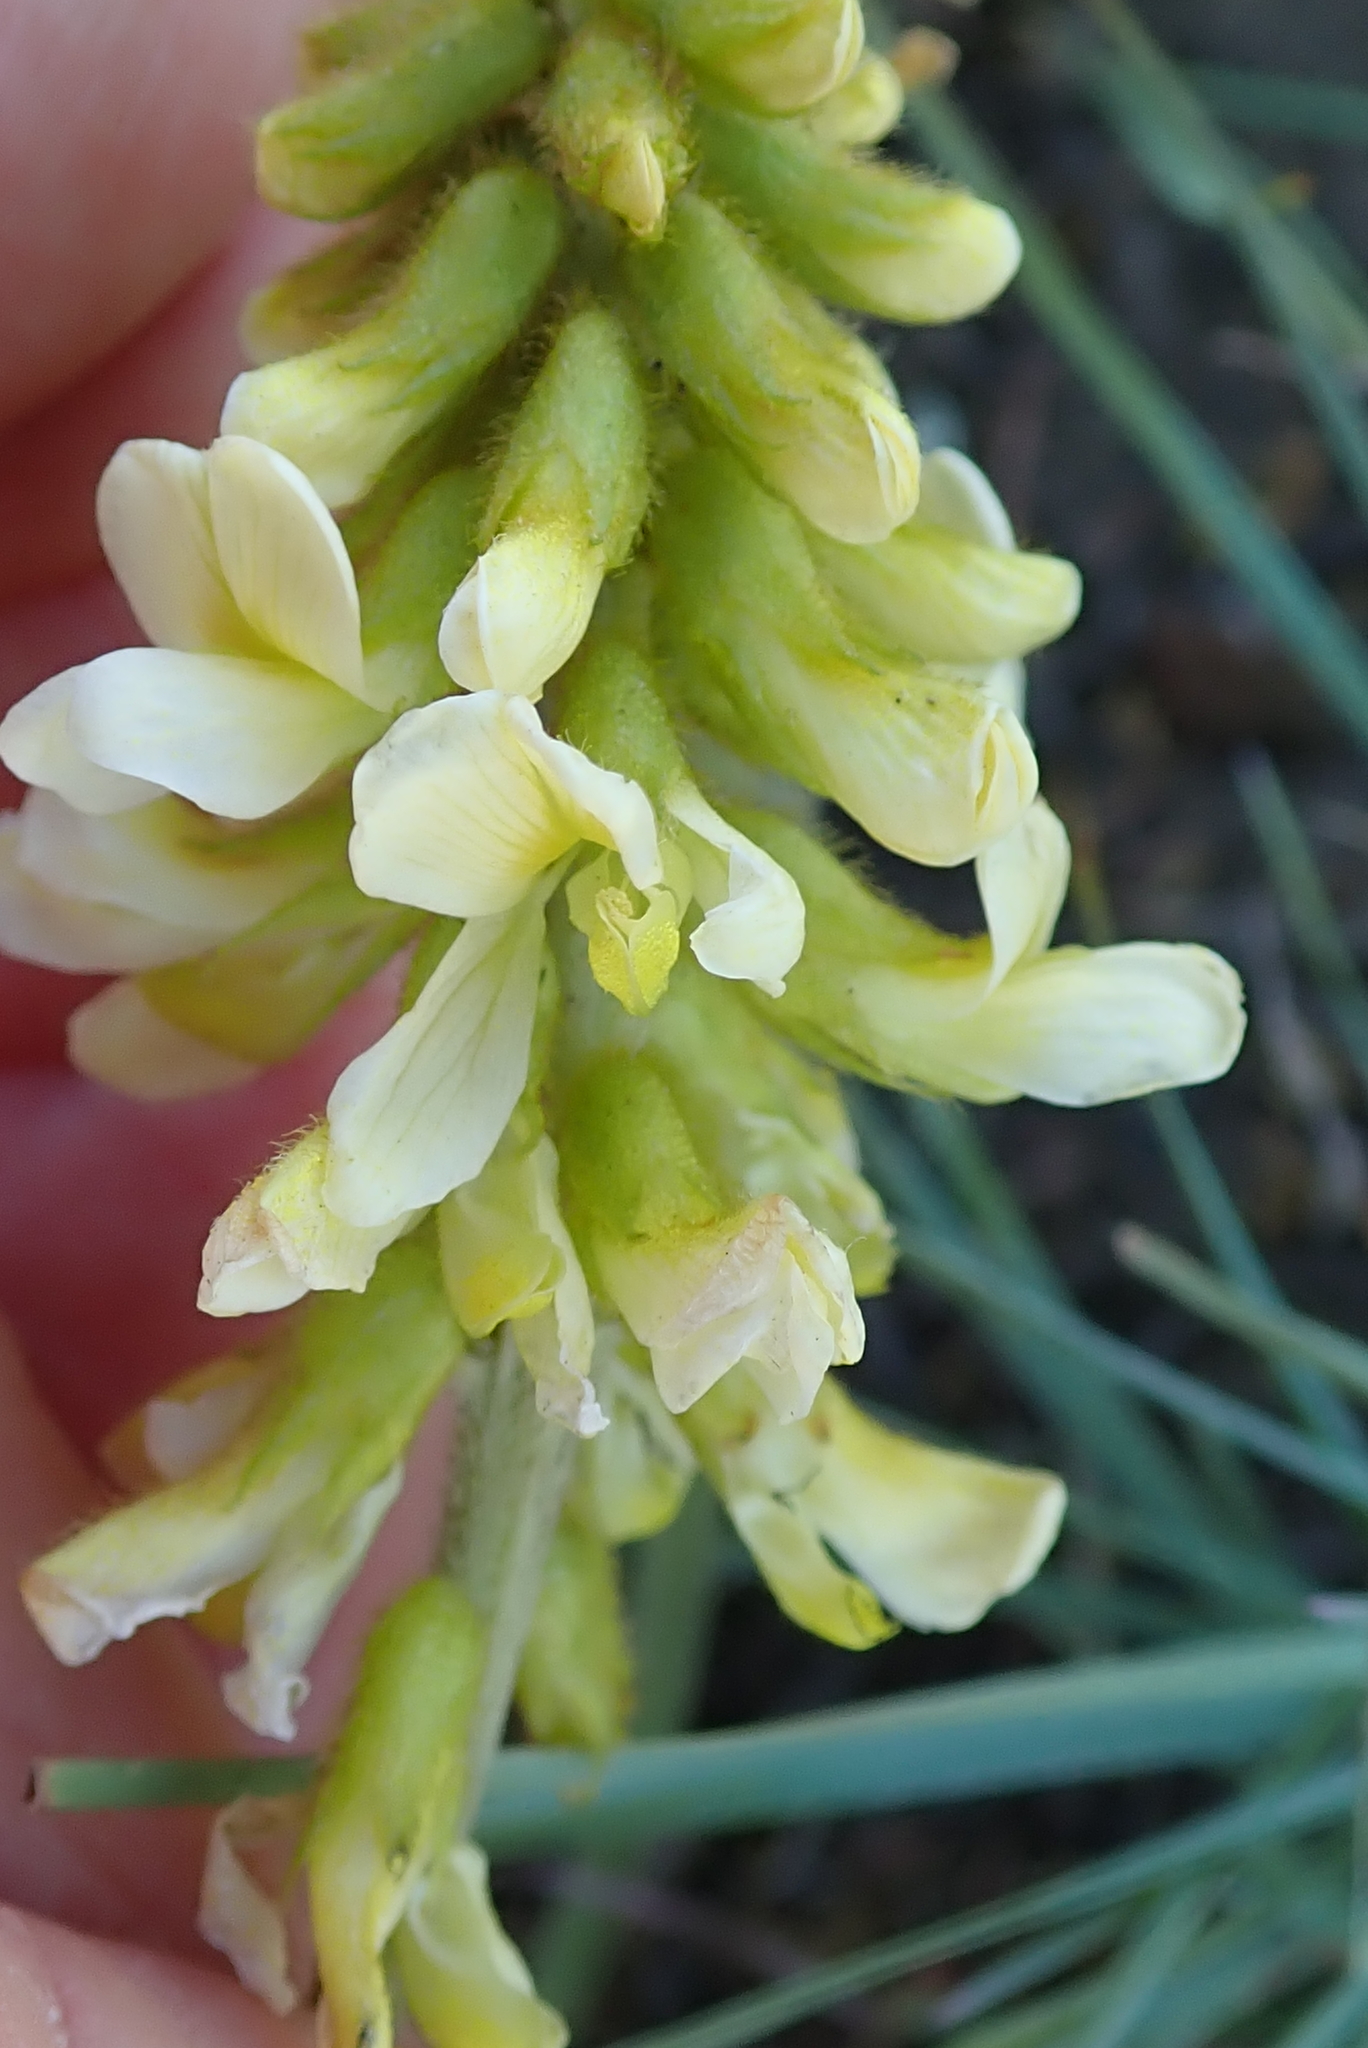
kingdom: Plantae
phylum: Tracheophyta
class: Magnoliopsida
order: Fabales
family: Fabaceae
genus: Eriosema
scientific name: Eriosema kraussianum
